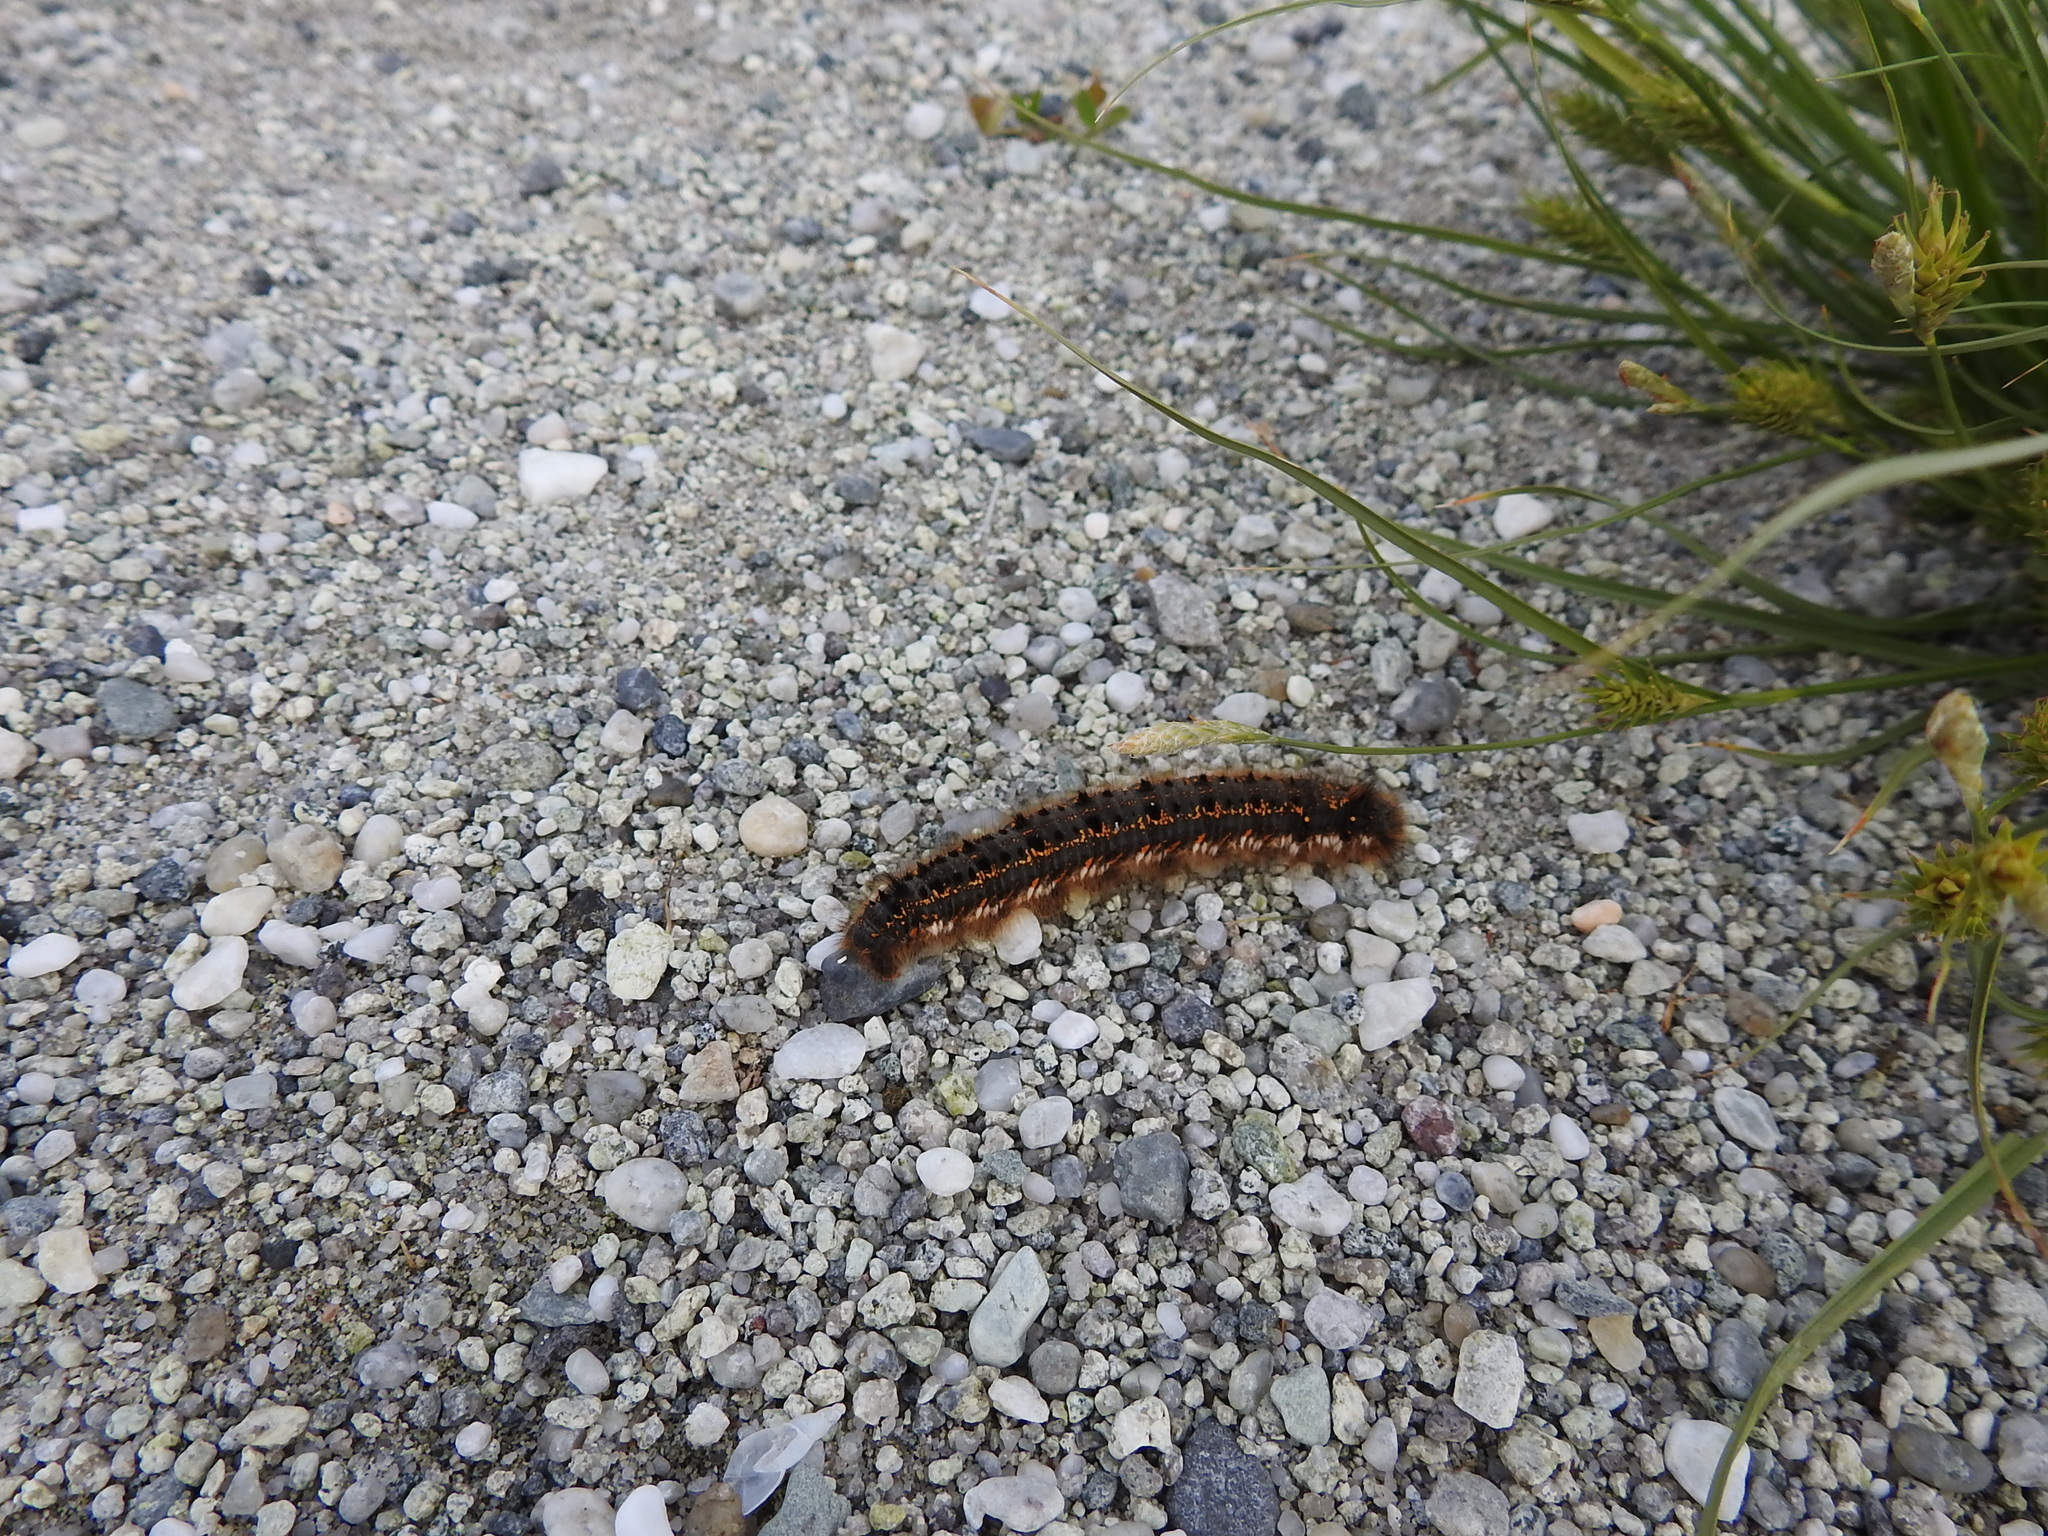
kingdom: Animalia
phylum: Arthropoda
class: Insecta
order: Lepidoptera
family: Lasiocampidae
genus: Euthrix
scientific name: Euthrix potatoria
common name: Drinker
